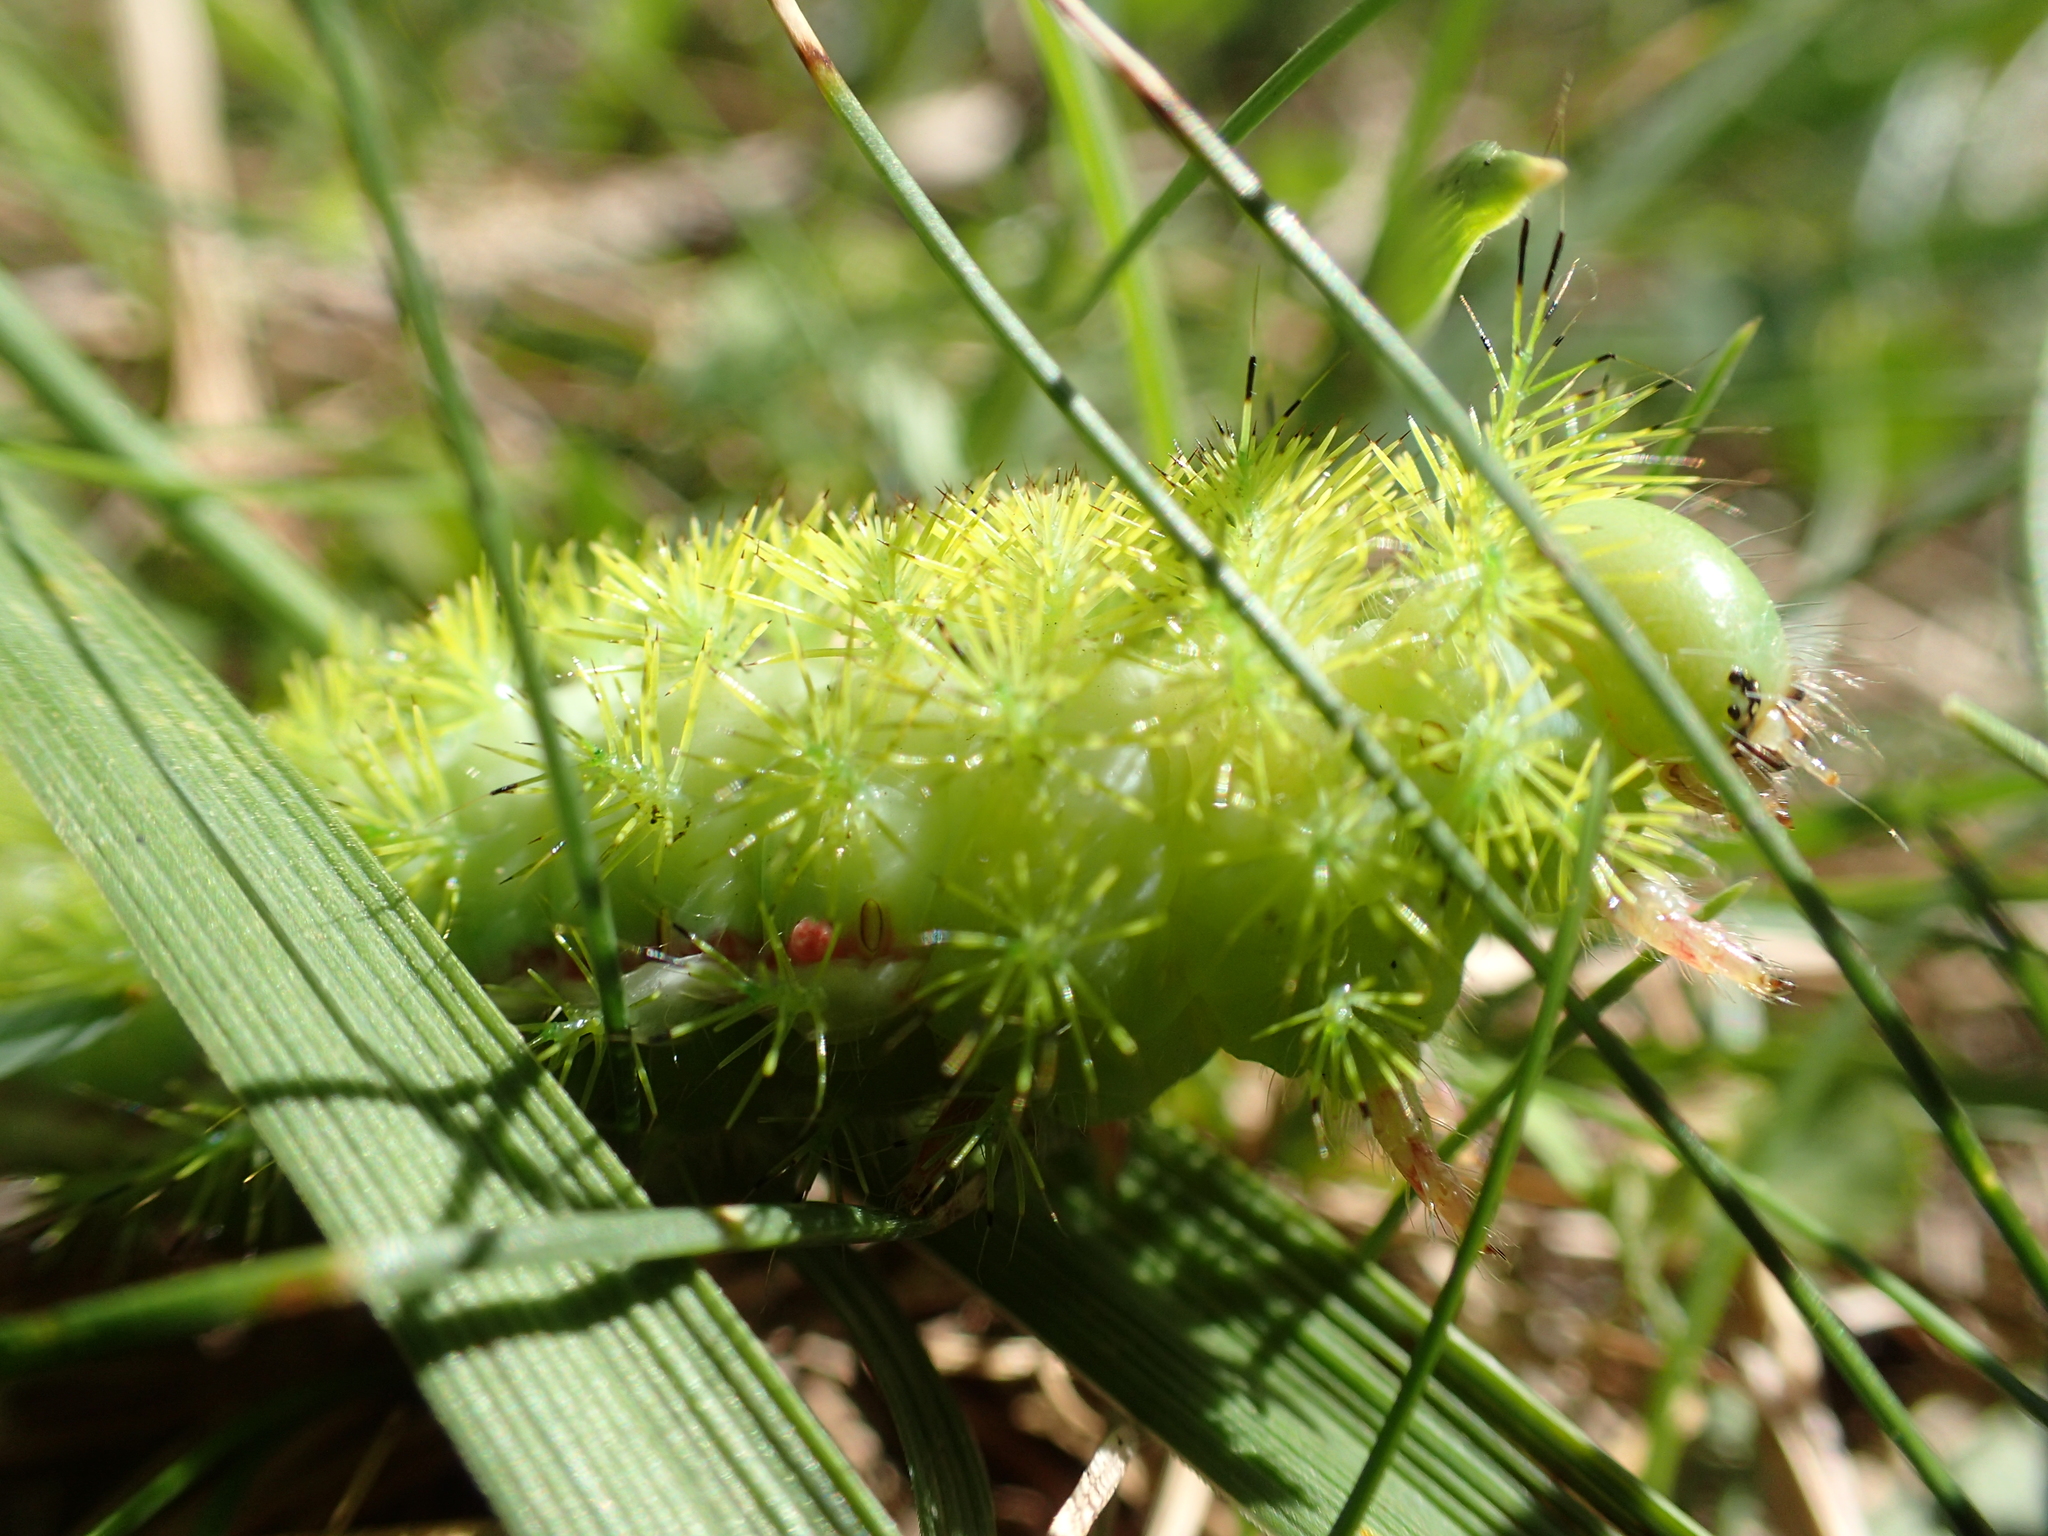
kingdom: Animalia
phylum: Arthropoda
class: Insecta
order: Lepidoptera
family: Saturniidae
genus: Automeris
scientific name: Automeris io
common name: Io moth
